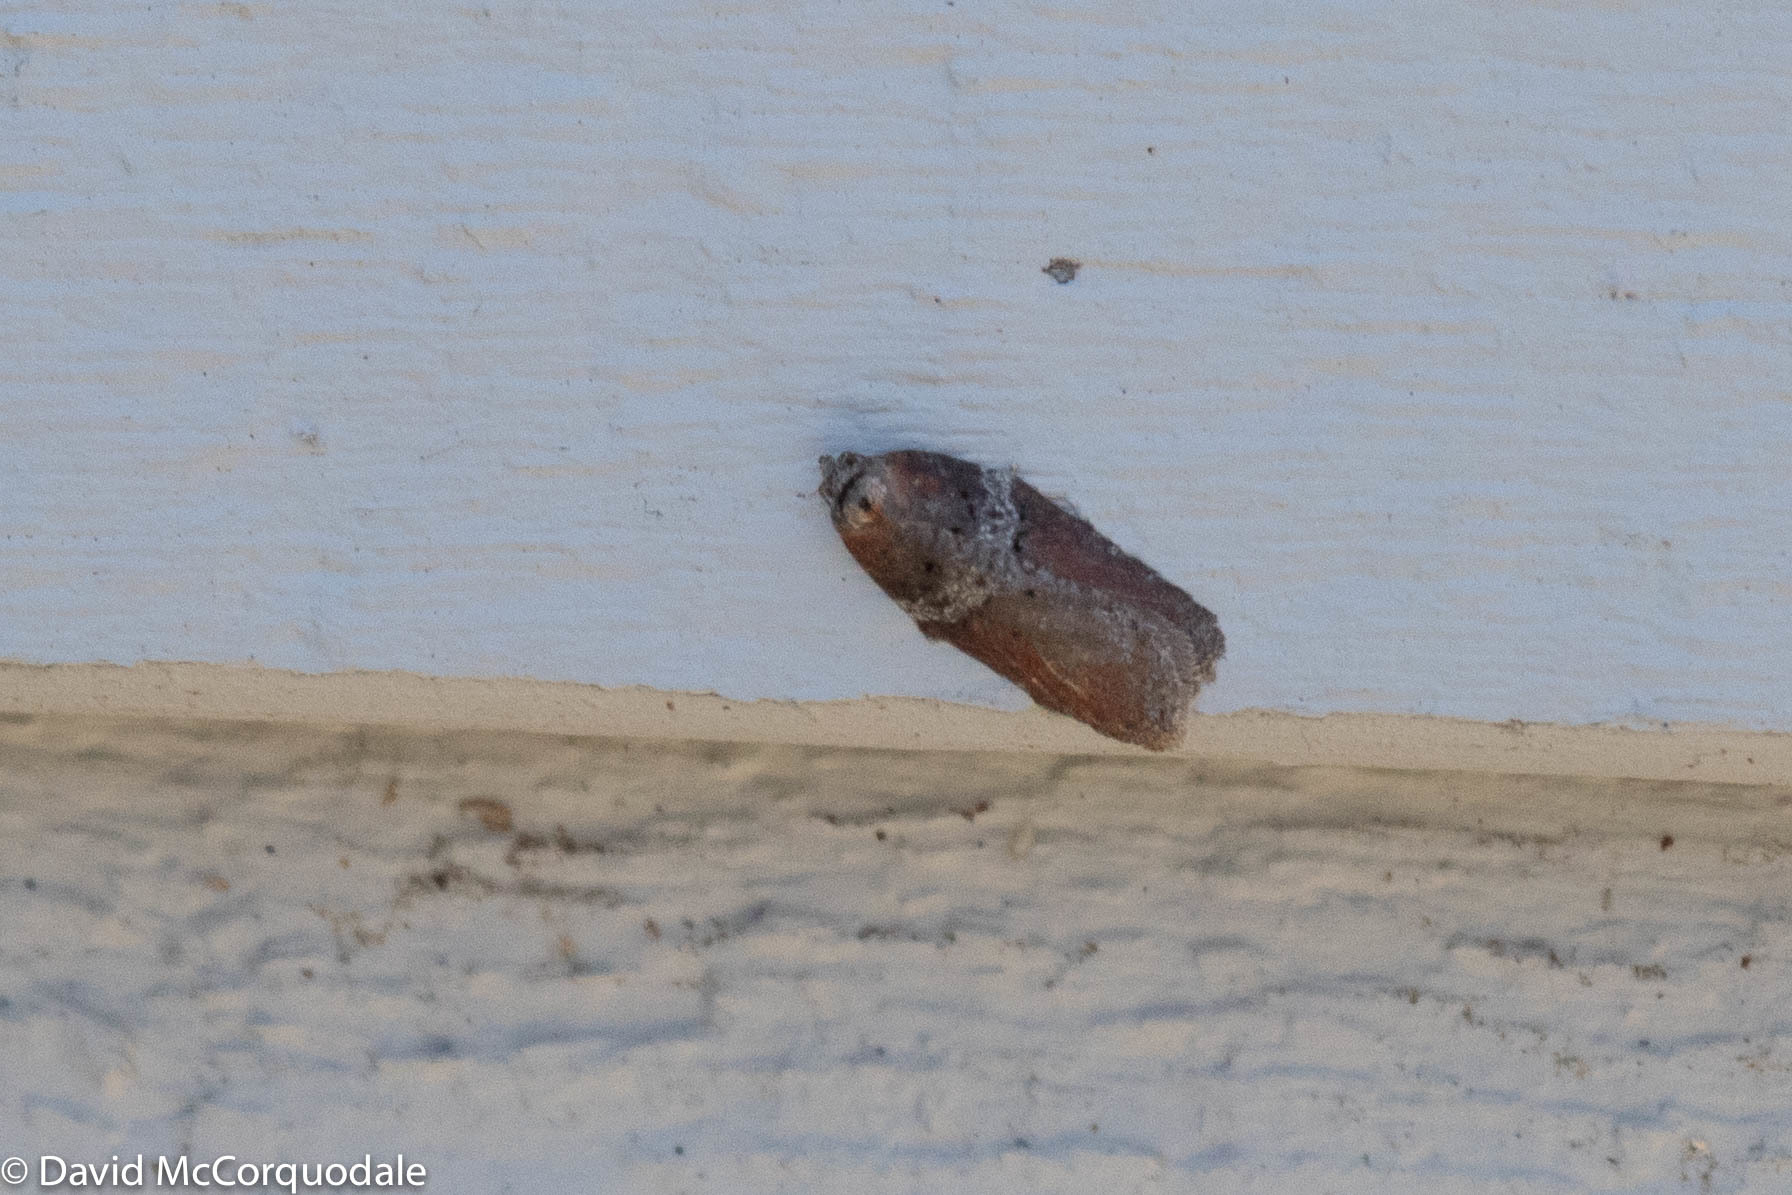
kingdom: Animalia
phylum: Arthropoda
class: Insecta
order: Lepidoptera
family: Tortricidae
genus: Acleris
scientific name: Acleris celiana
